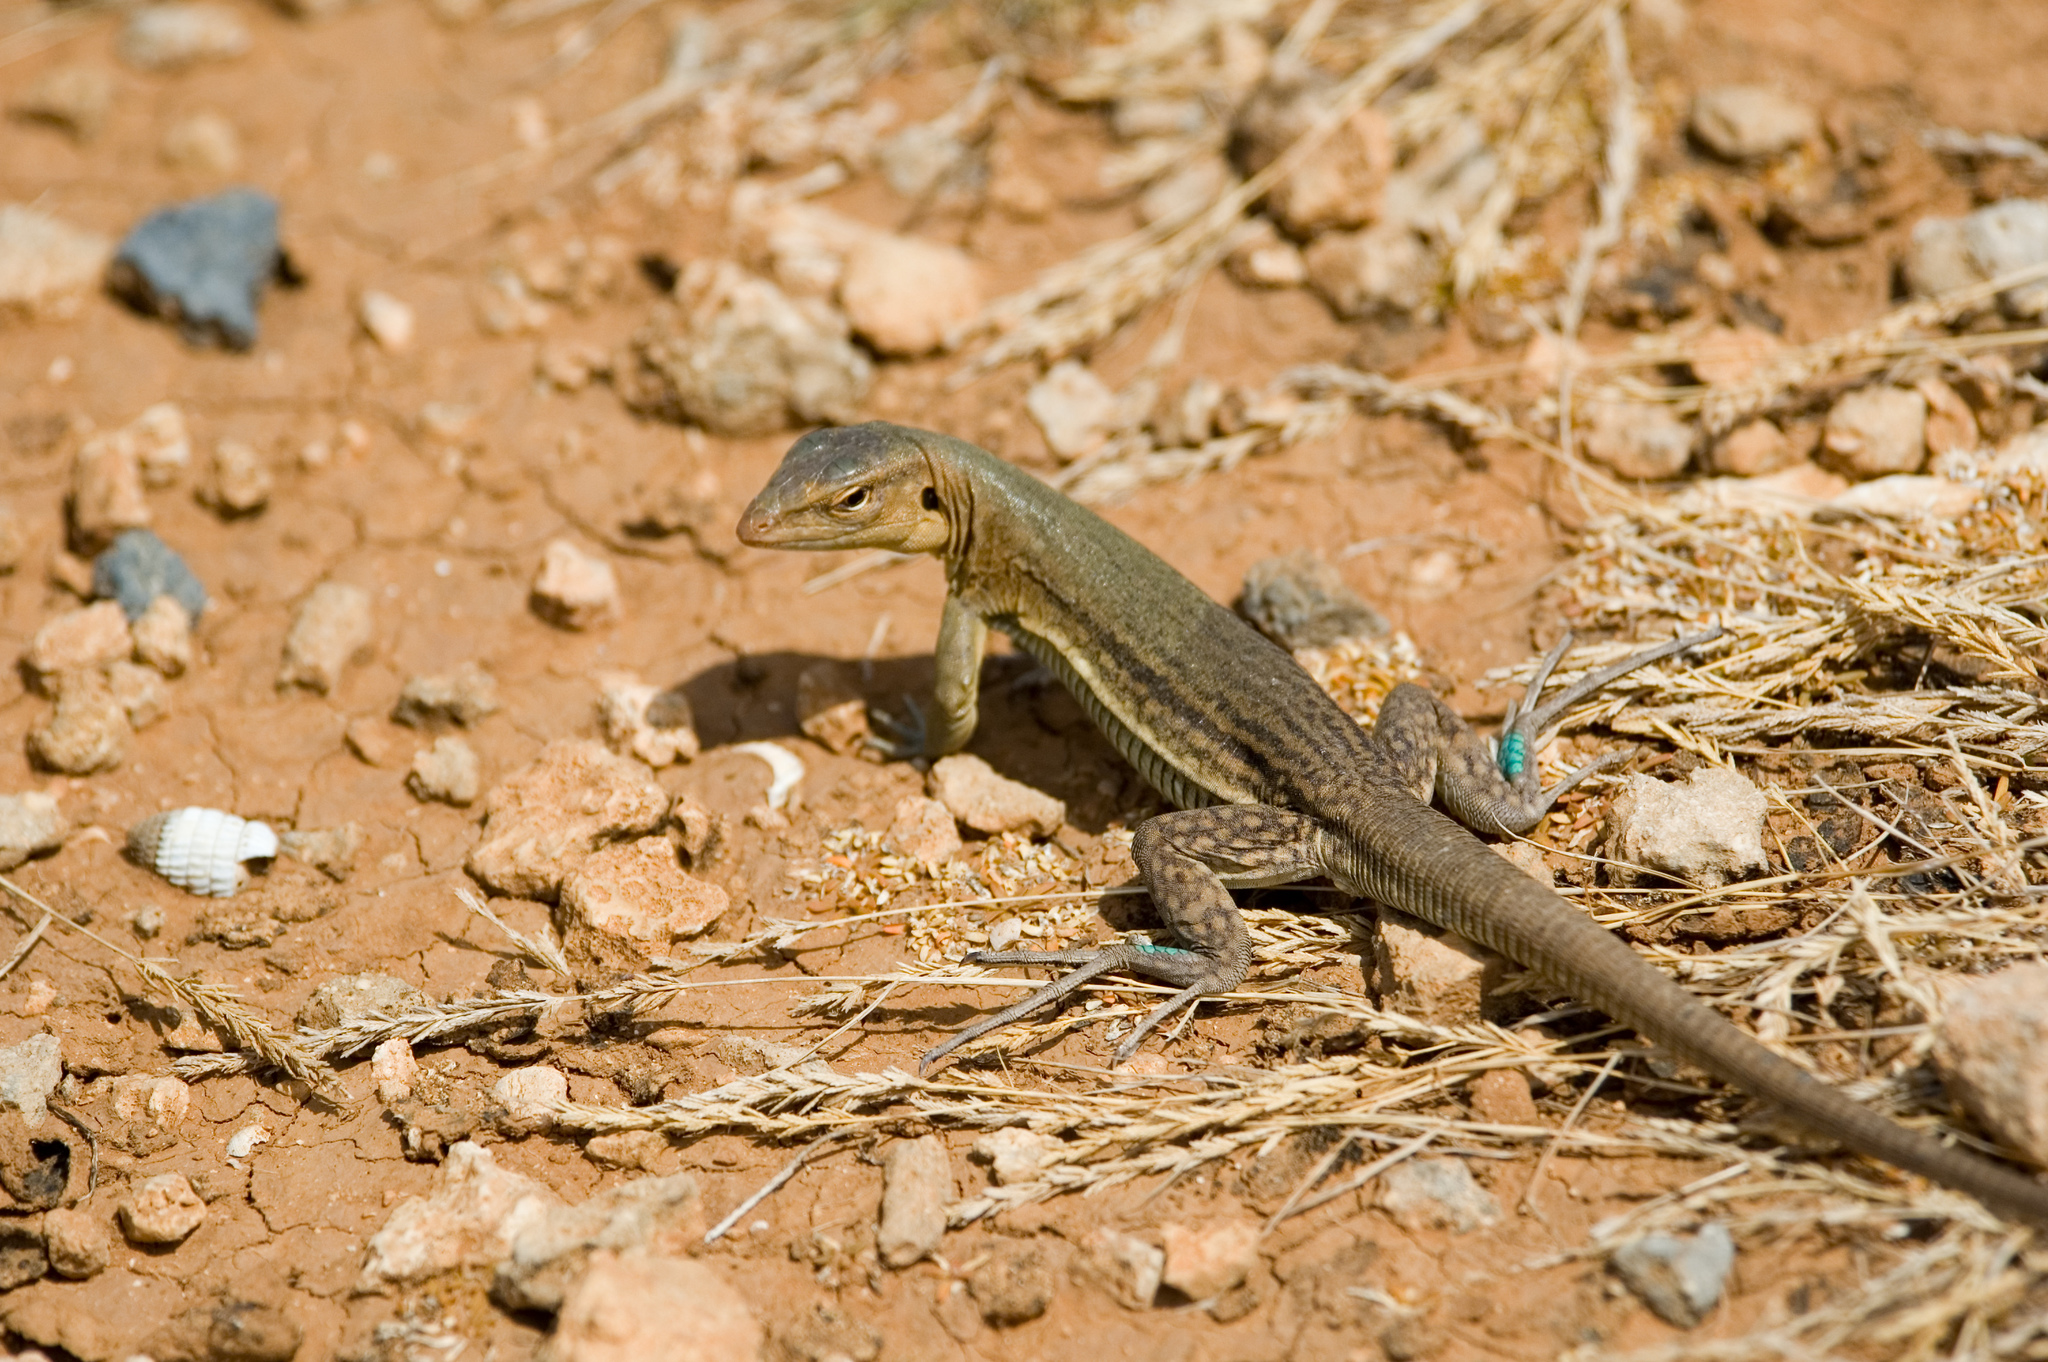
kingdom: Animalia
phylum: Chordata
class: Squamata
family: Teiidae
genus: Cnemidophorus
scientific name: Cnemidophorus ruthveni
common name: Bonaire whiptail
